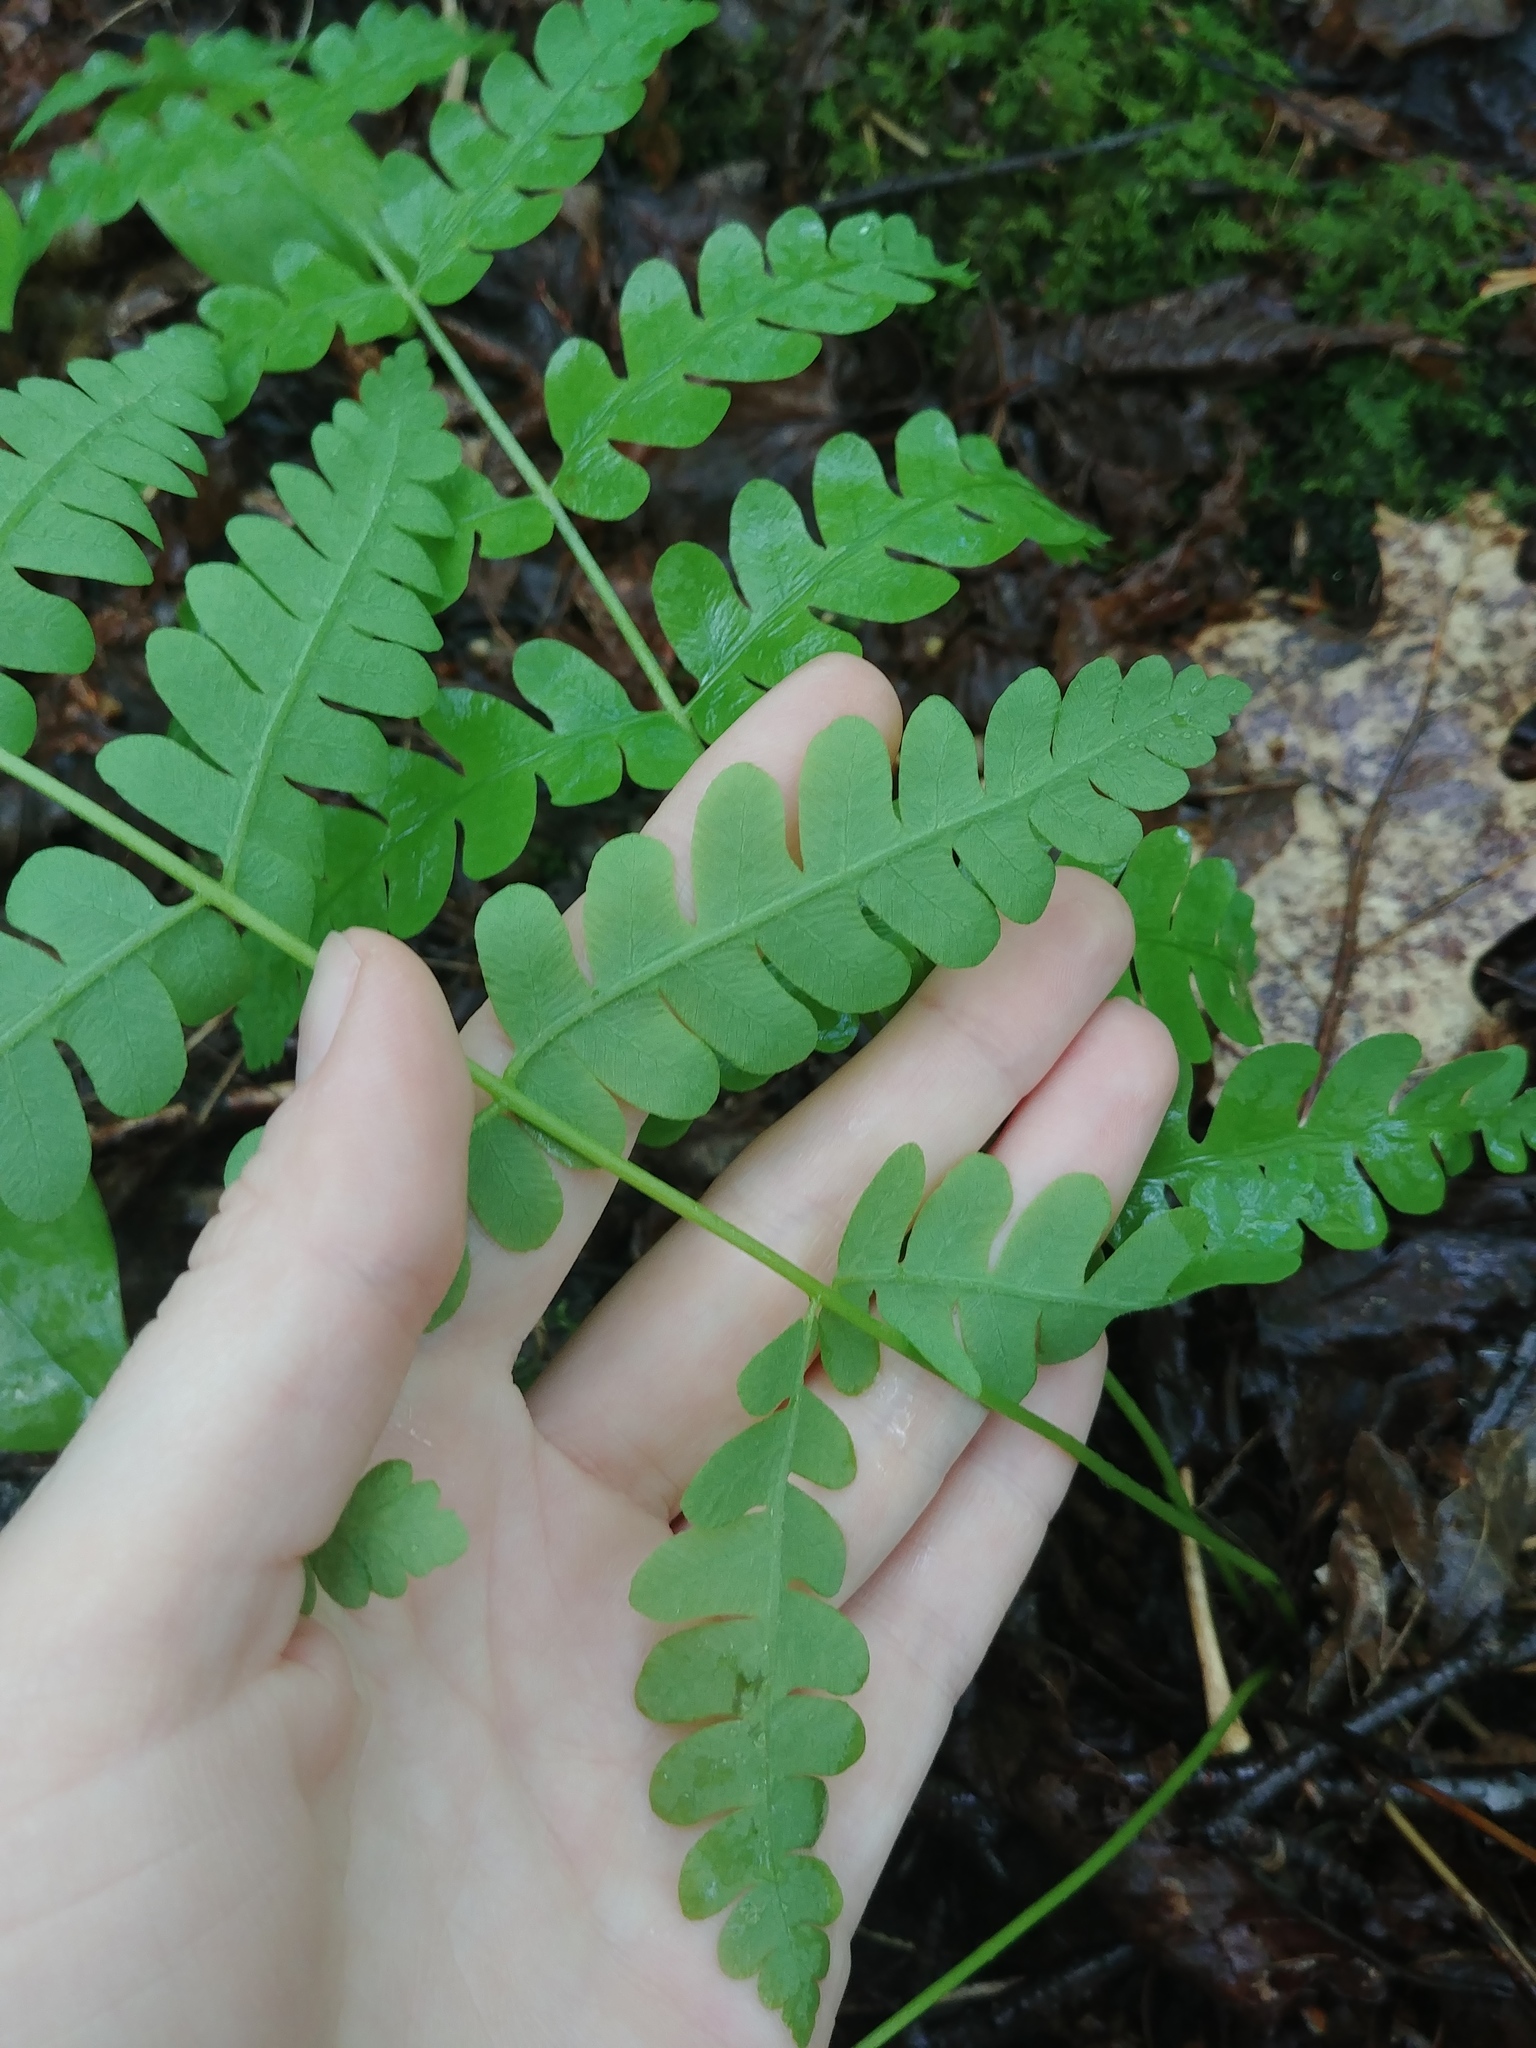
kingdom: Plantae
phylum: Tracheophyta
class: Polypodiopsida
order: Osmundales
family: Osmundaceae
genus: Claytosmunda
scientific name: Claytosmunda claytoniana
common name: Clayton's fern
